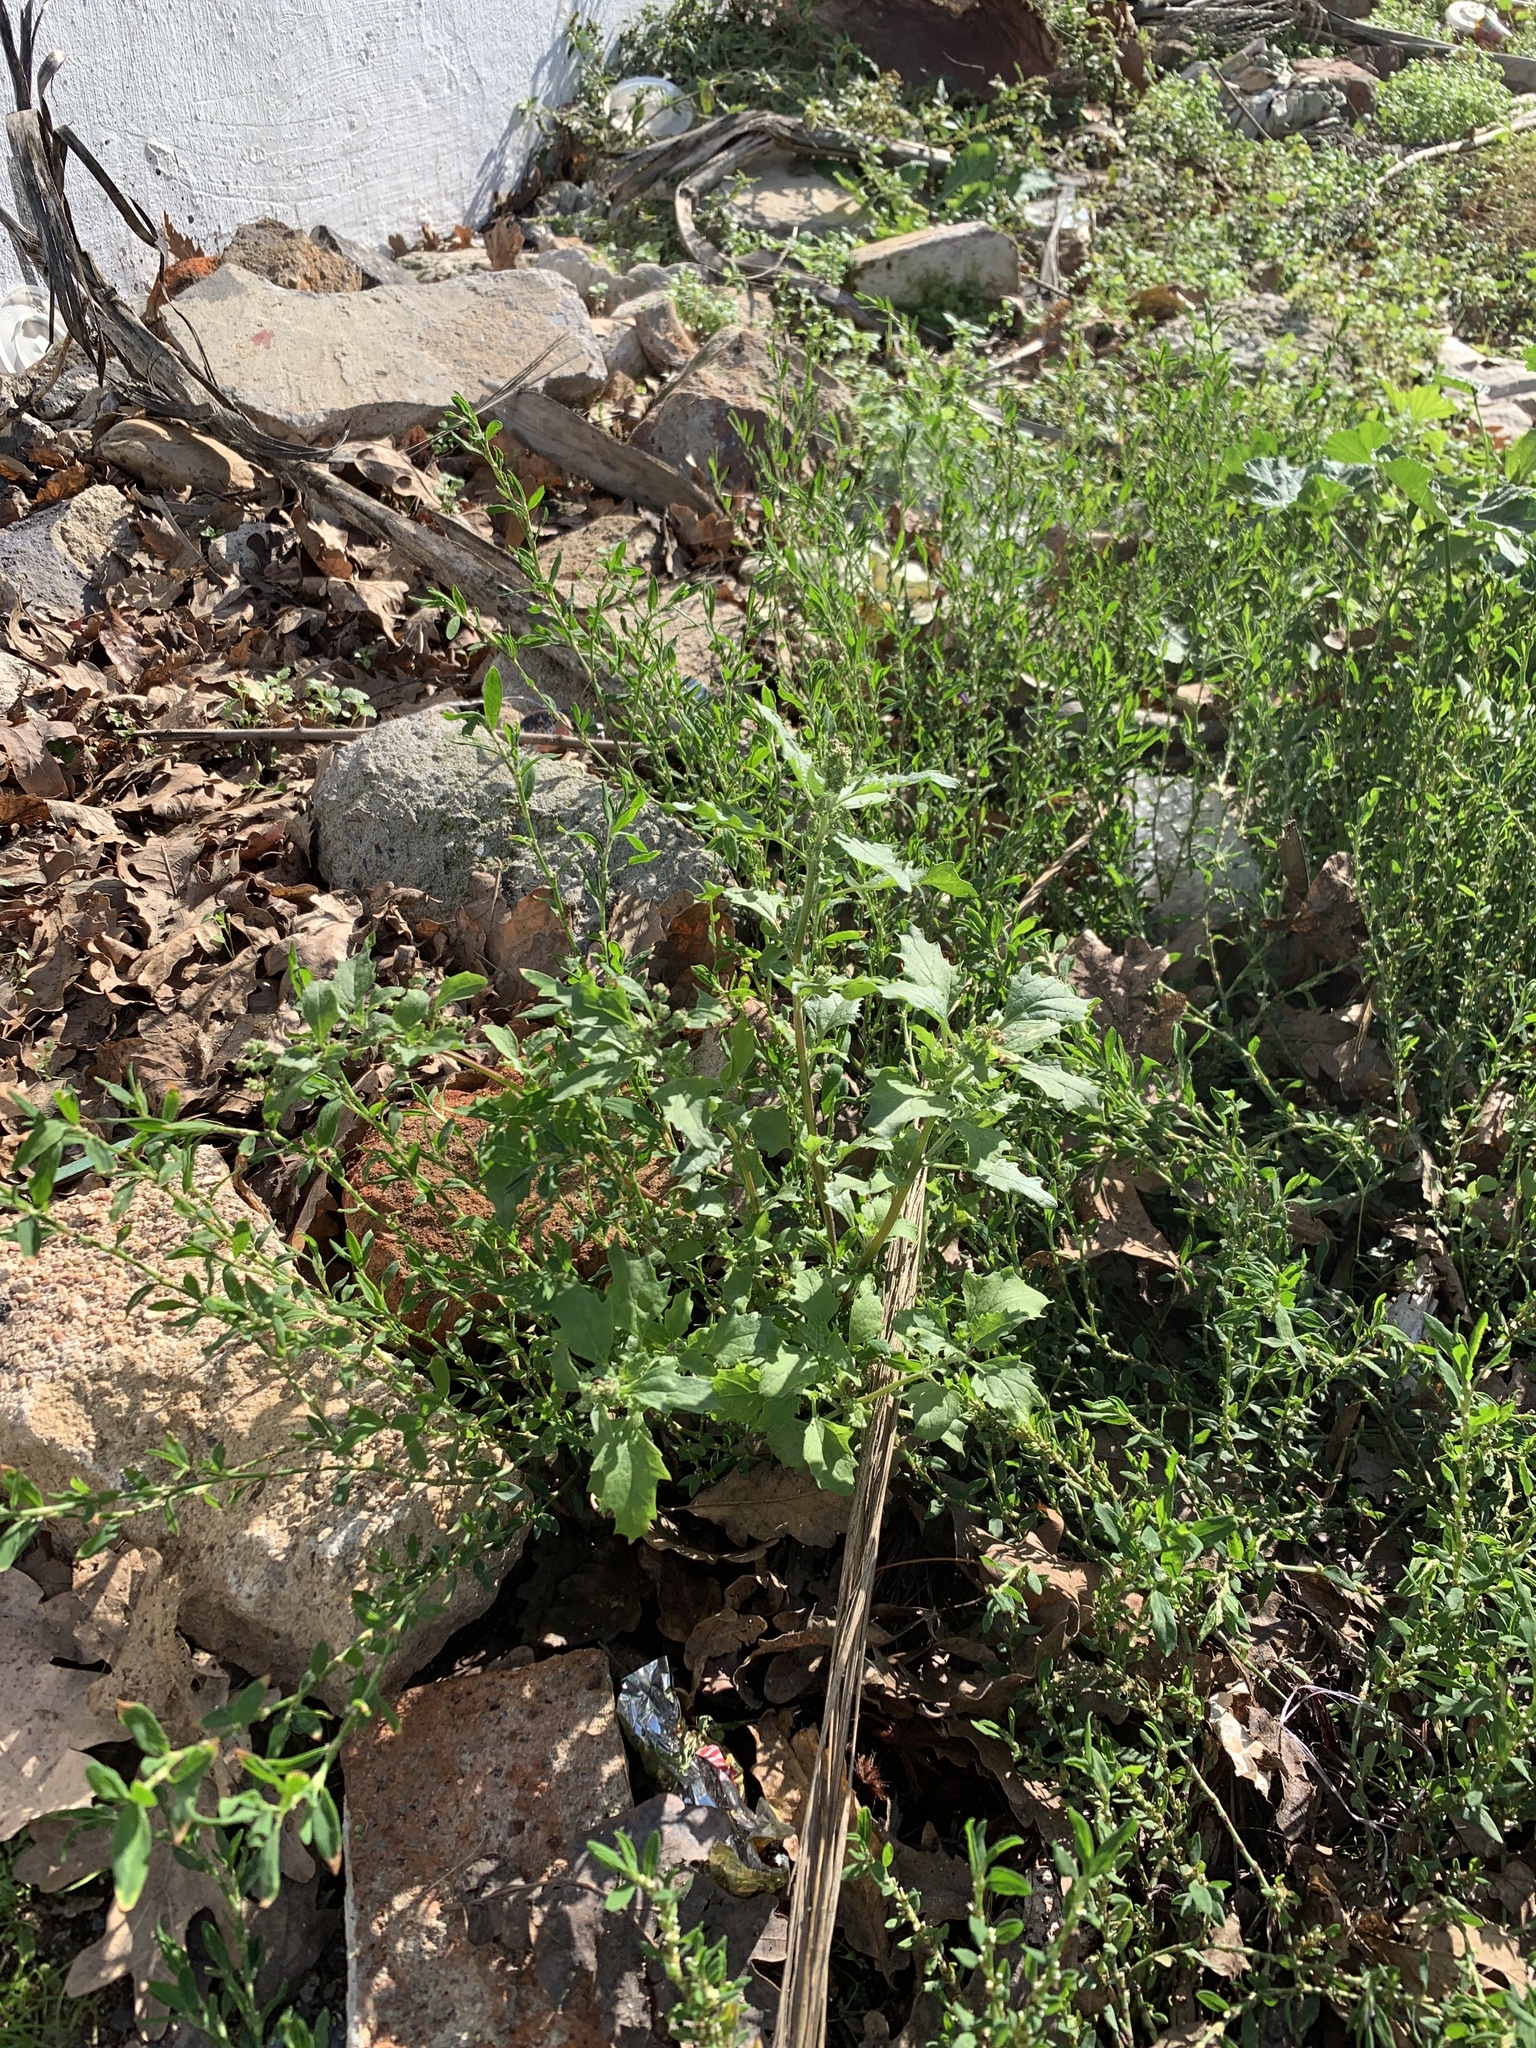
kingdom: Plantae
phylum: Tracheophyta
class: Magnoliopsida
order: Caryophyllales
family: Amaranthaceae
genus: Chenopodiastrum
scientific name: Chenopodiastrum murale
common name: Sowbane
